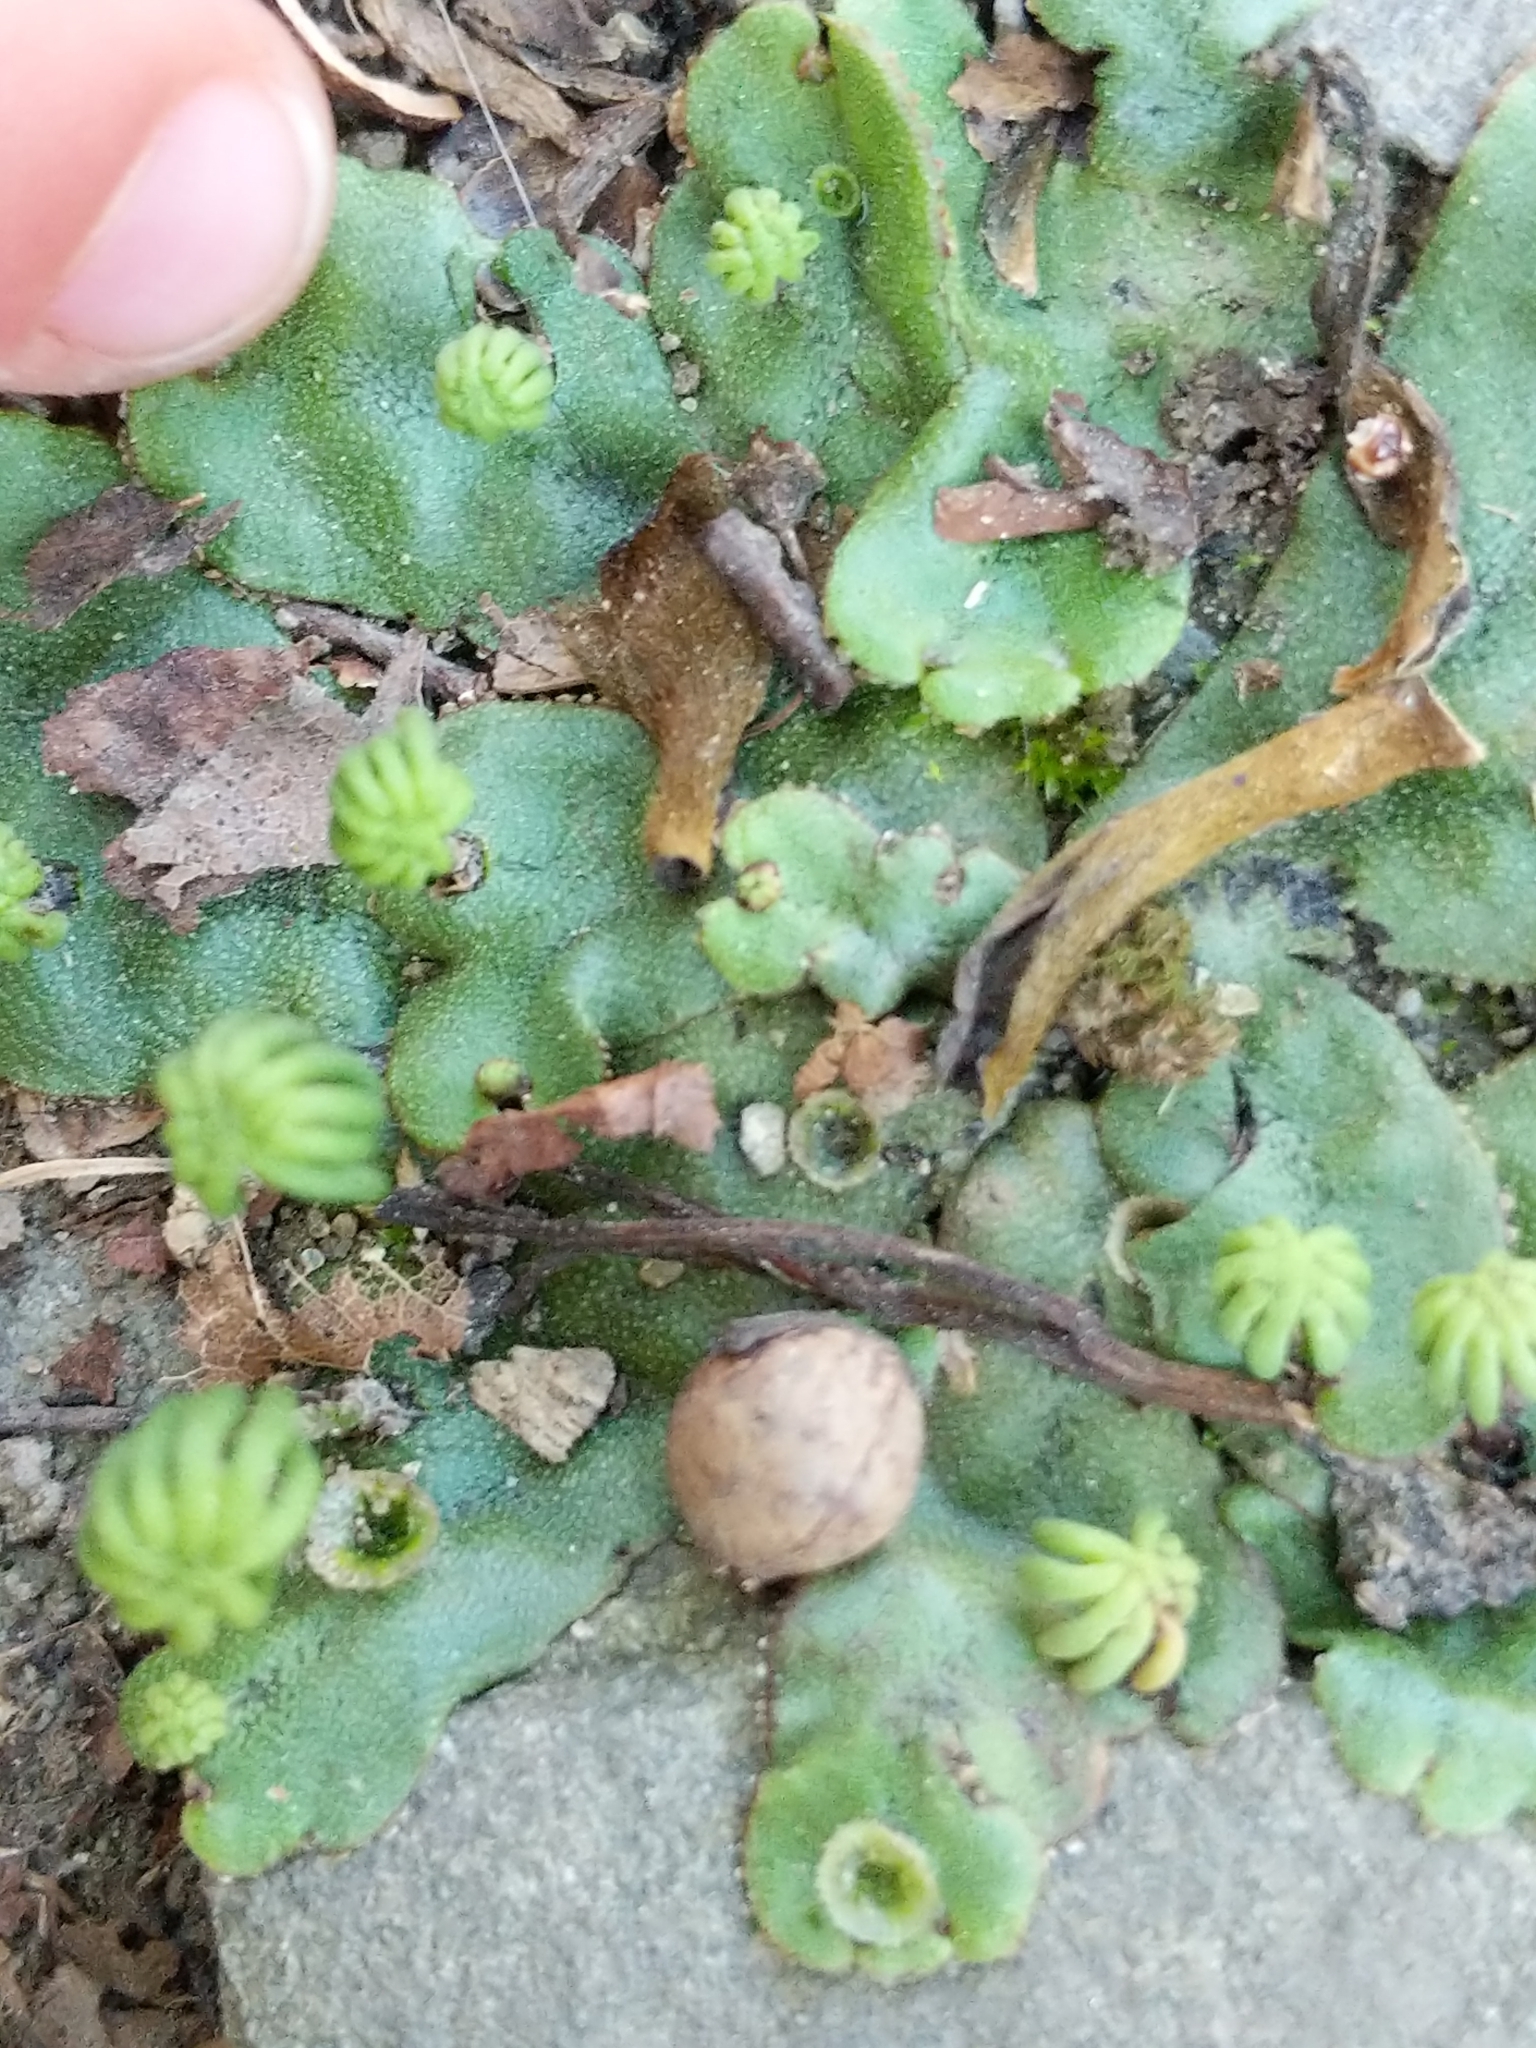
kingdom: Plantae
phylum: Marchantiophyta
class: Marchantiopsida
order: Marchantiales
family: Marchantiaceae
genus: Marchantia
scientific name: Marchantia polymorpha
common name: Common liverwort
